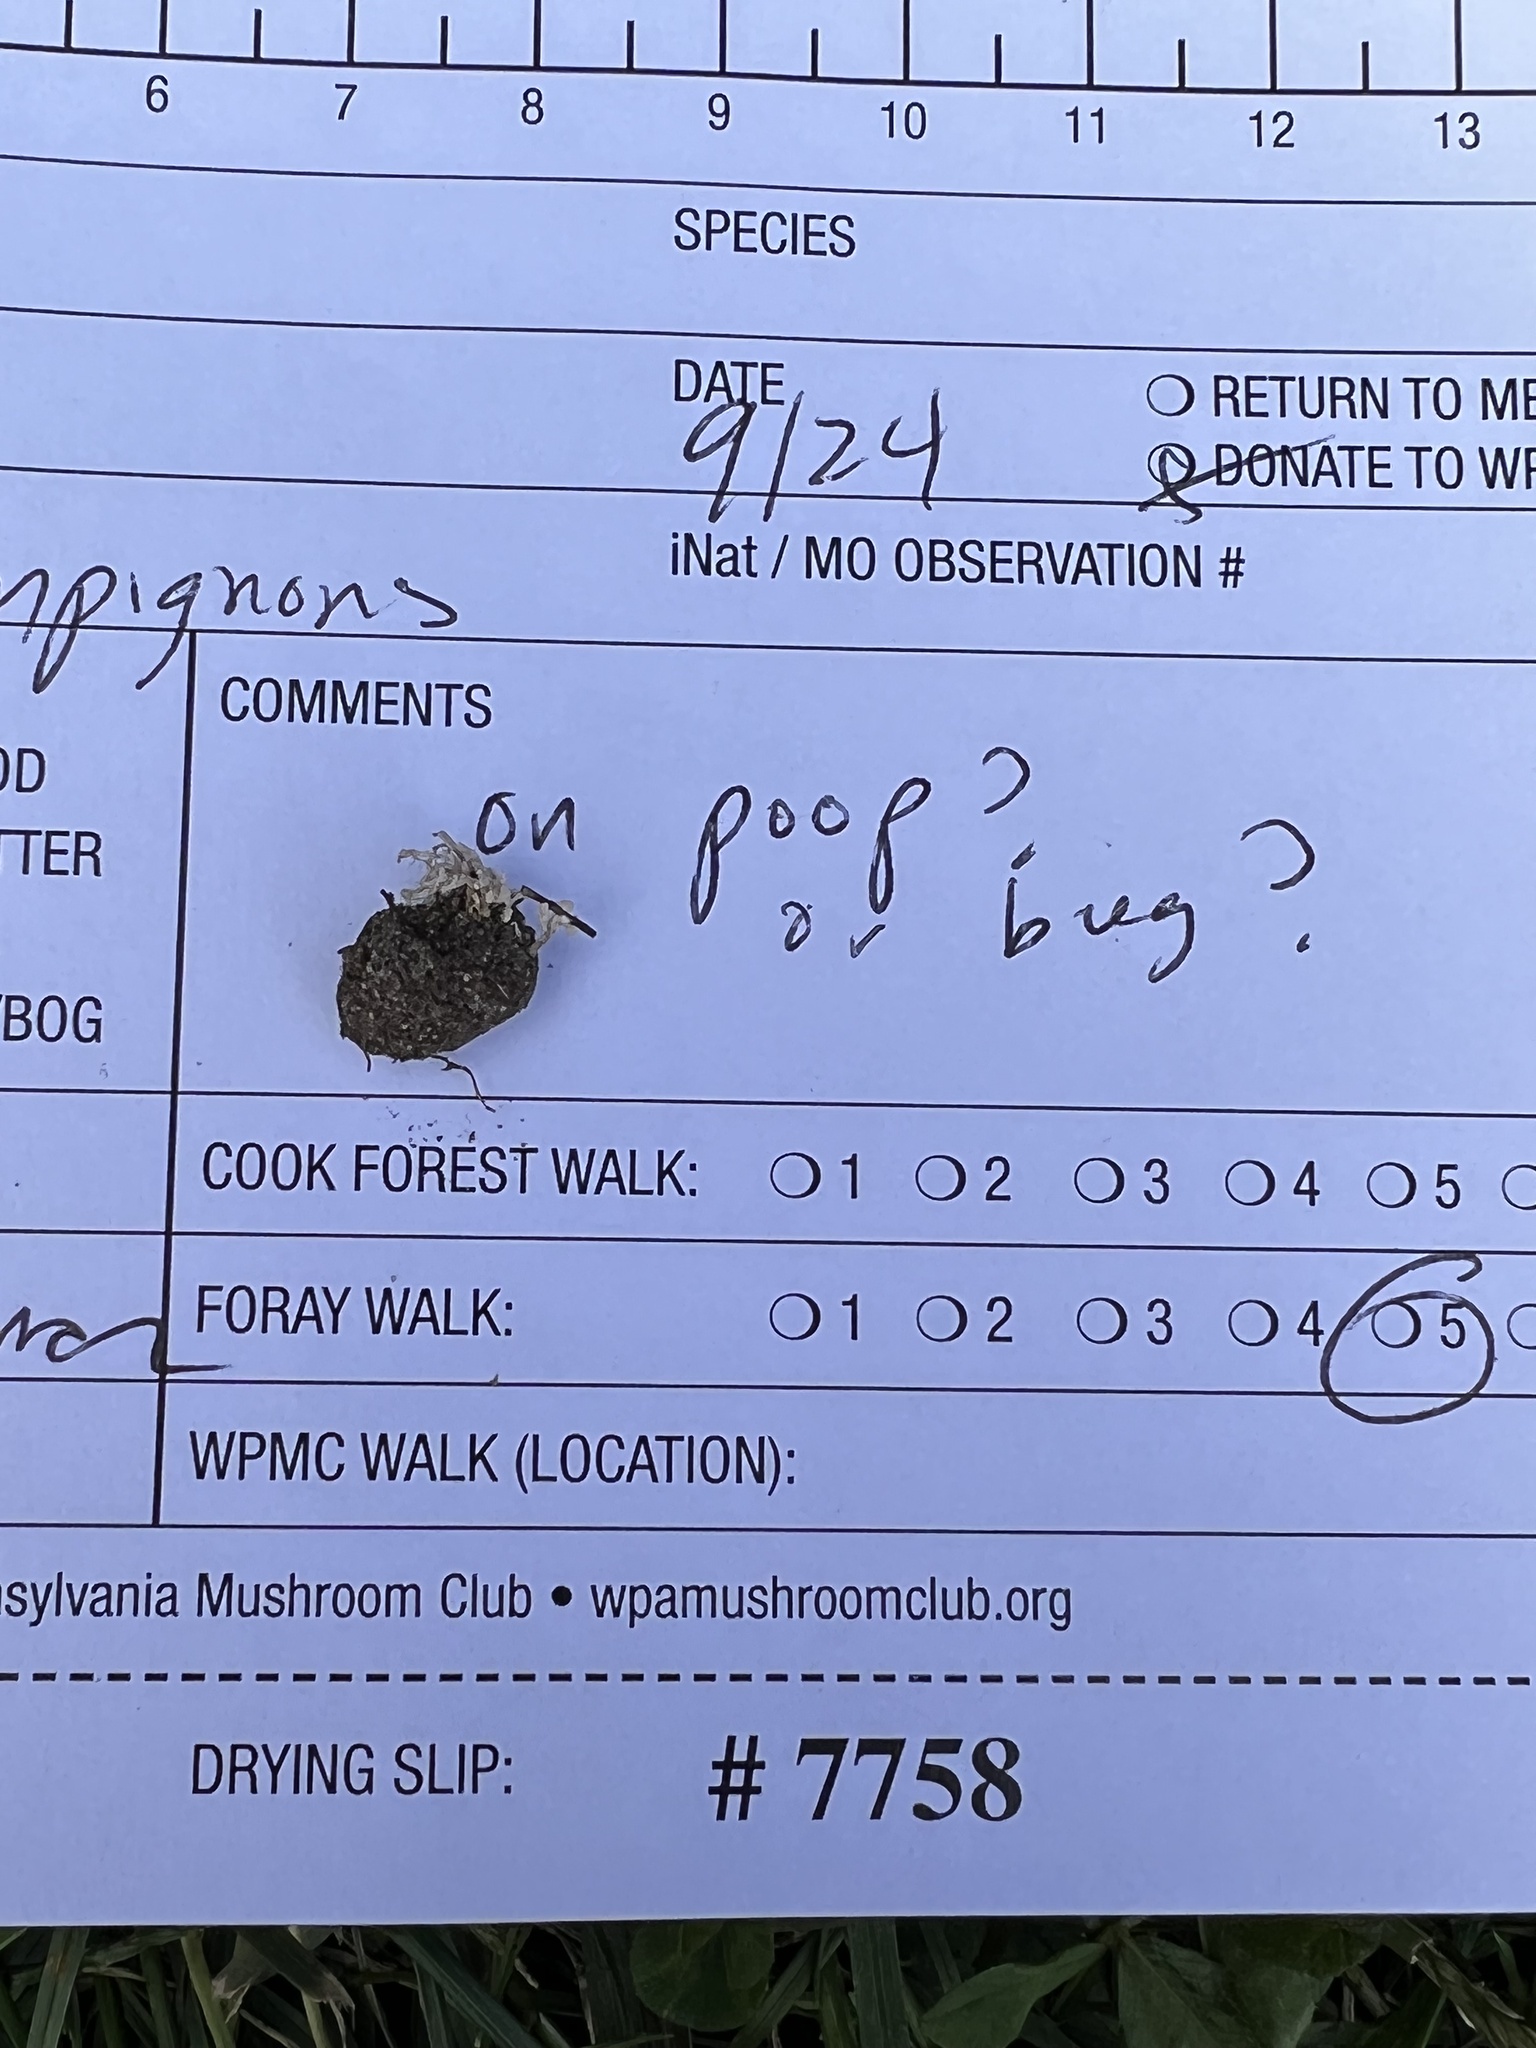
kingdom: Fungi
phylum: Ascomycota
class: Sordariomycetes
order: Hypocreales
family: Cordycipitaceae
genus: Cordyceps
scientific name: Cordyceps fumosorosea
